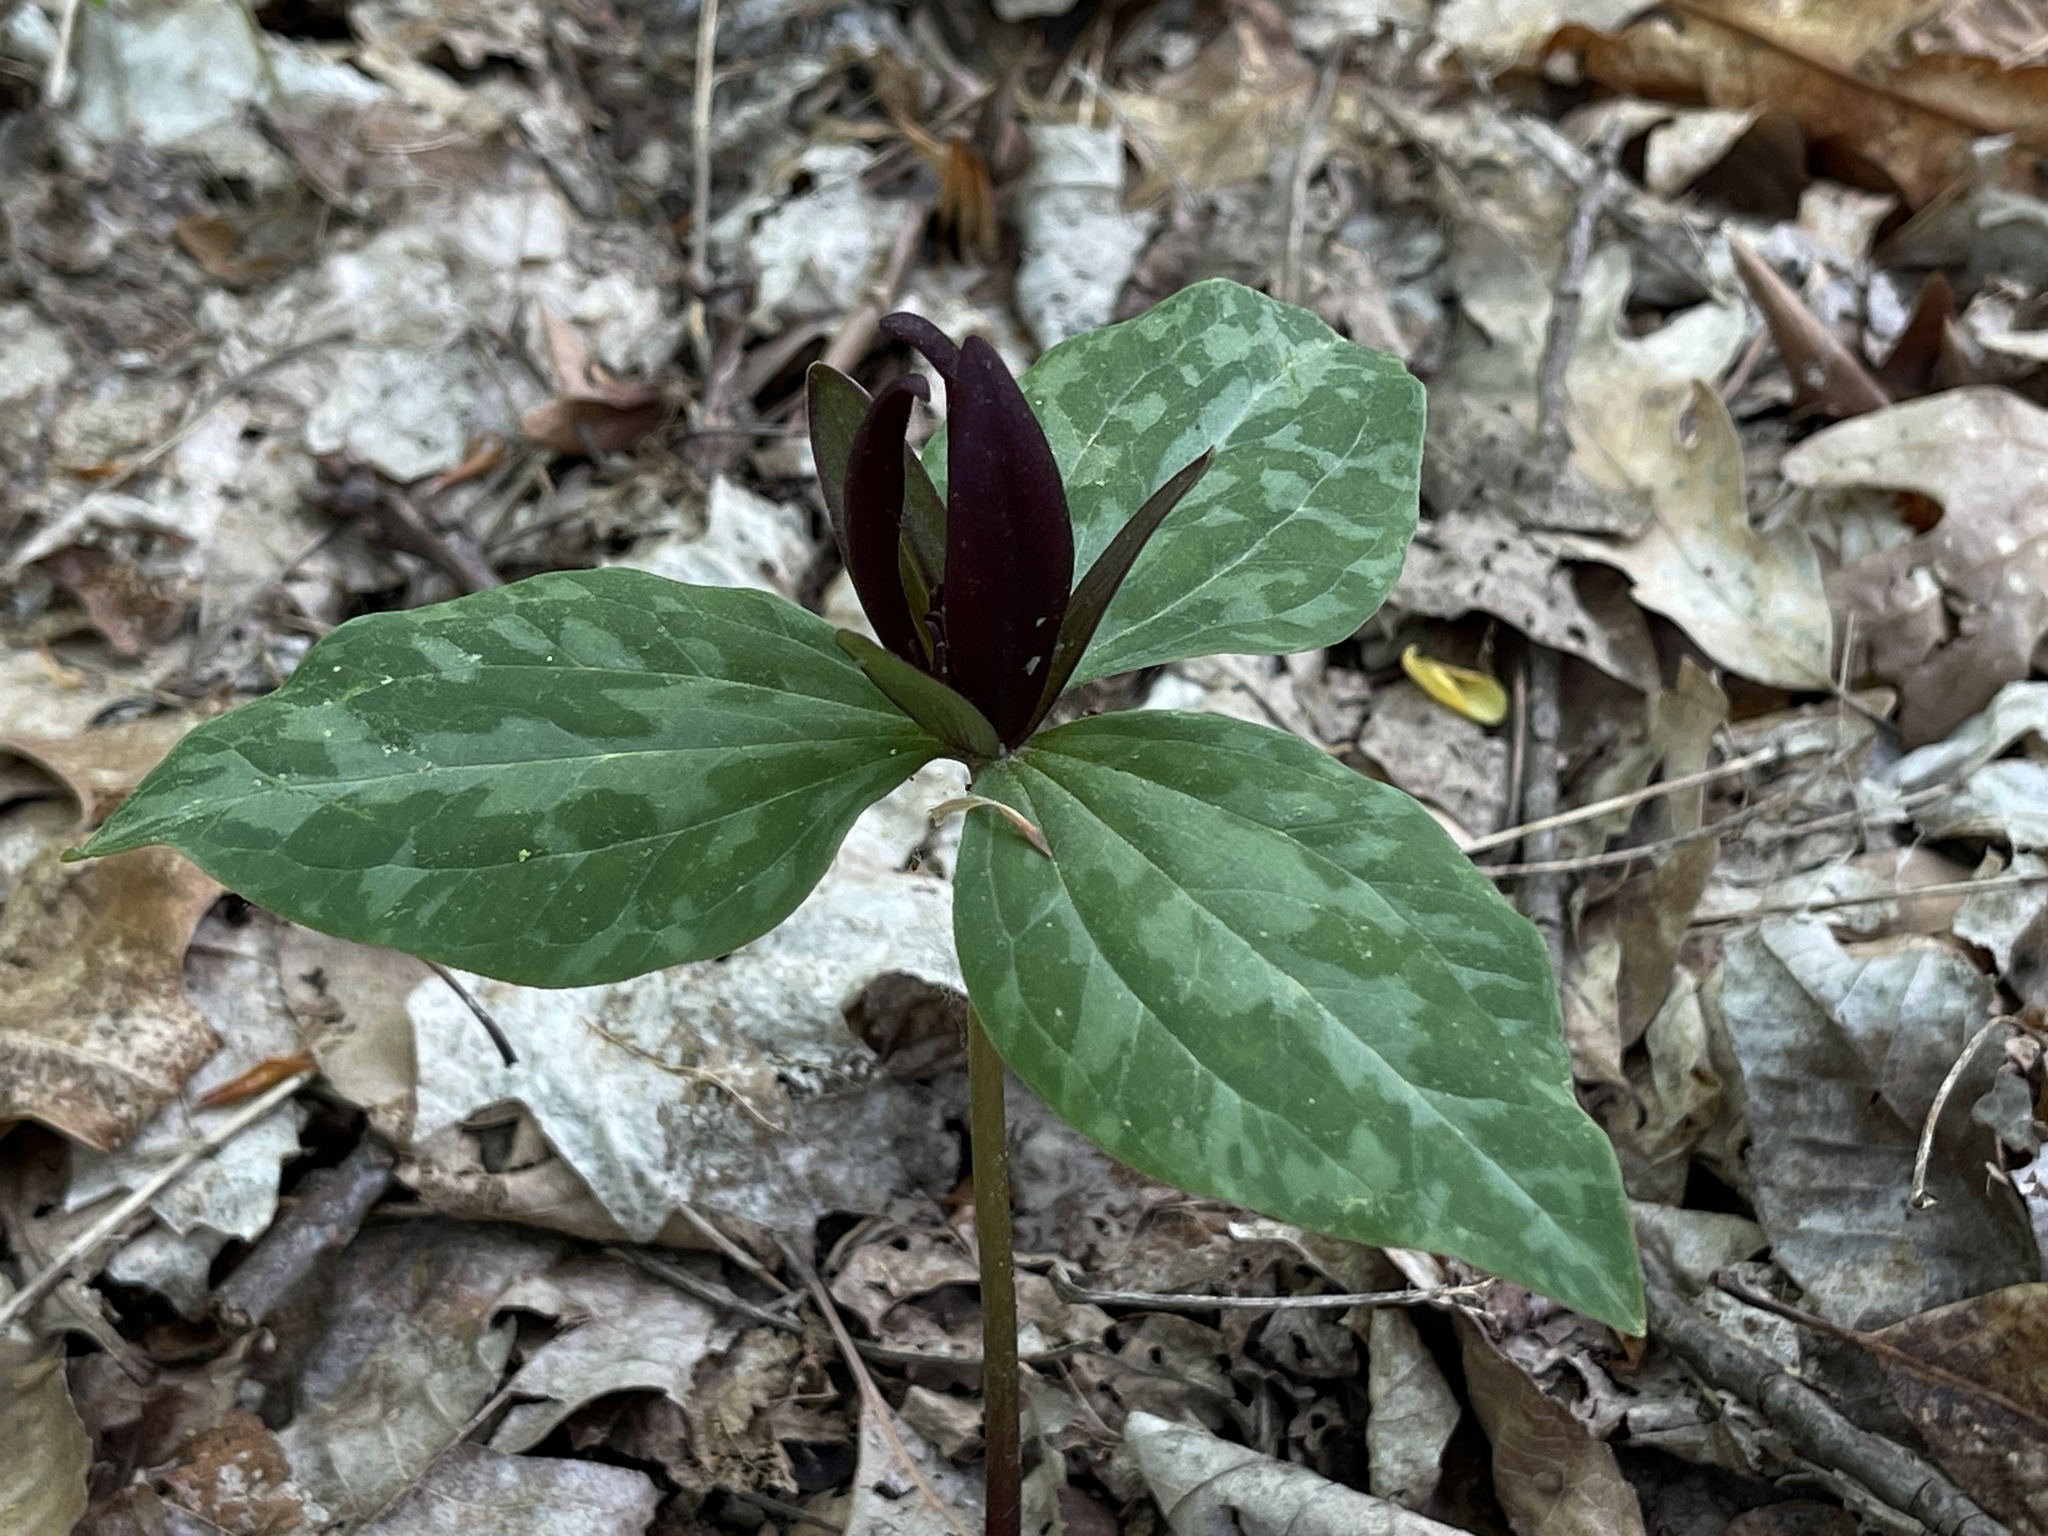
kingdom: Plantae
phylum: Tracheophyta
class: Liliopsida
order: Liliales
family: Melanthiaceae
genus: Trillium
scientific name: Trillium cuneatum
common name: Cuneate trillium
